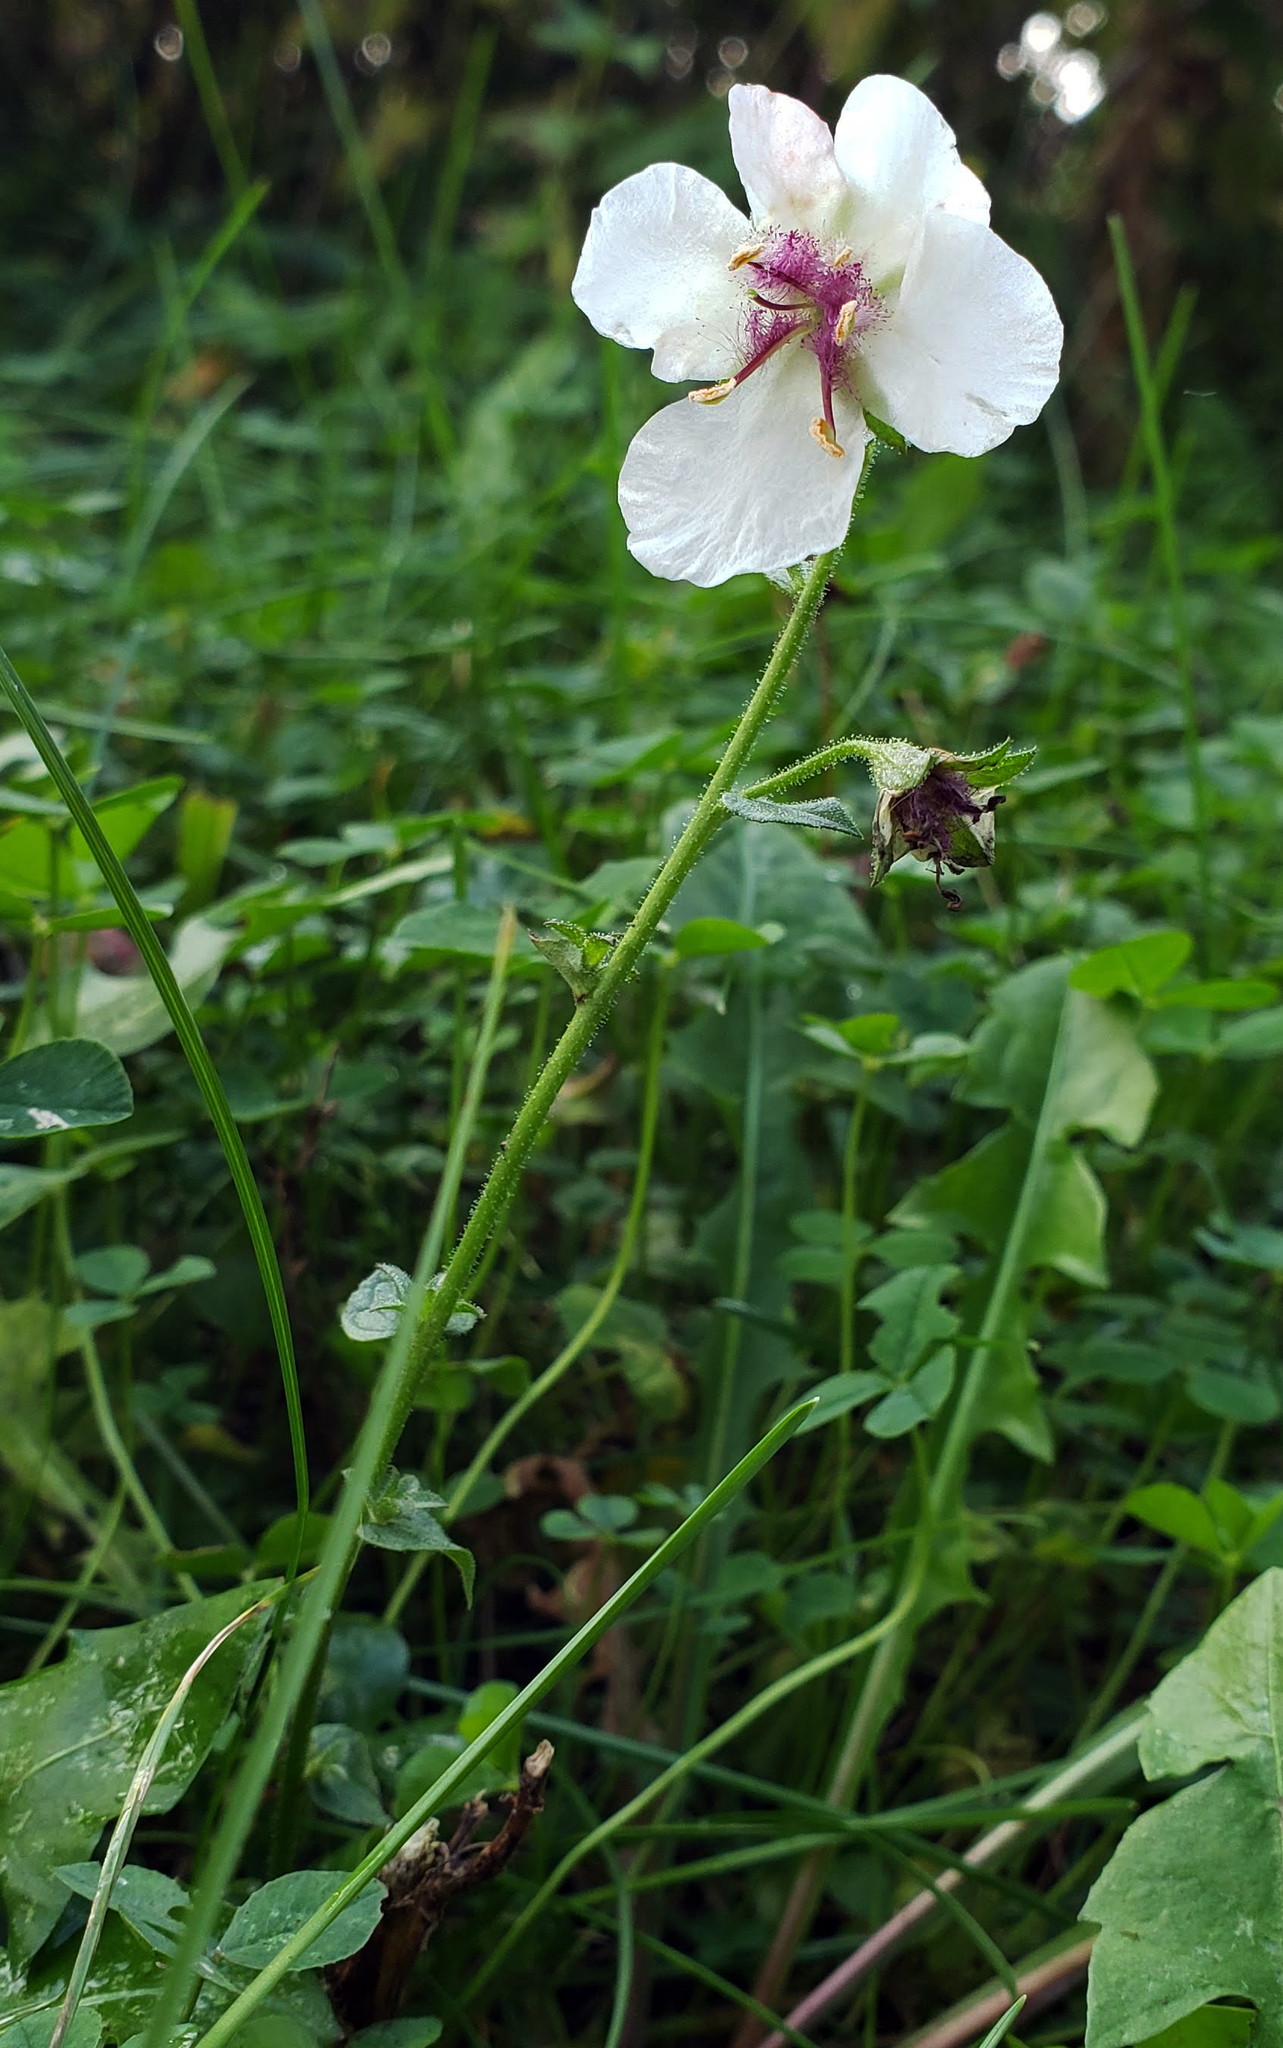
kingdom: Plantae
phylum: Tracheophyta
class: Magnoliopsida
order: Lamiales
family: Scrophulariaceae
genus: Verbascum
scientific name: Verbascum blattaria
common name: Moth mullein
